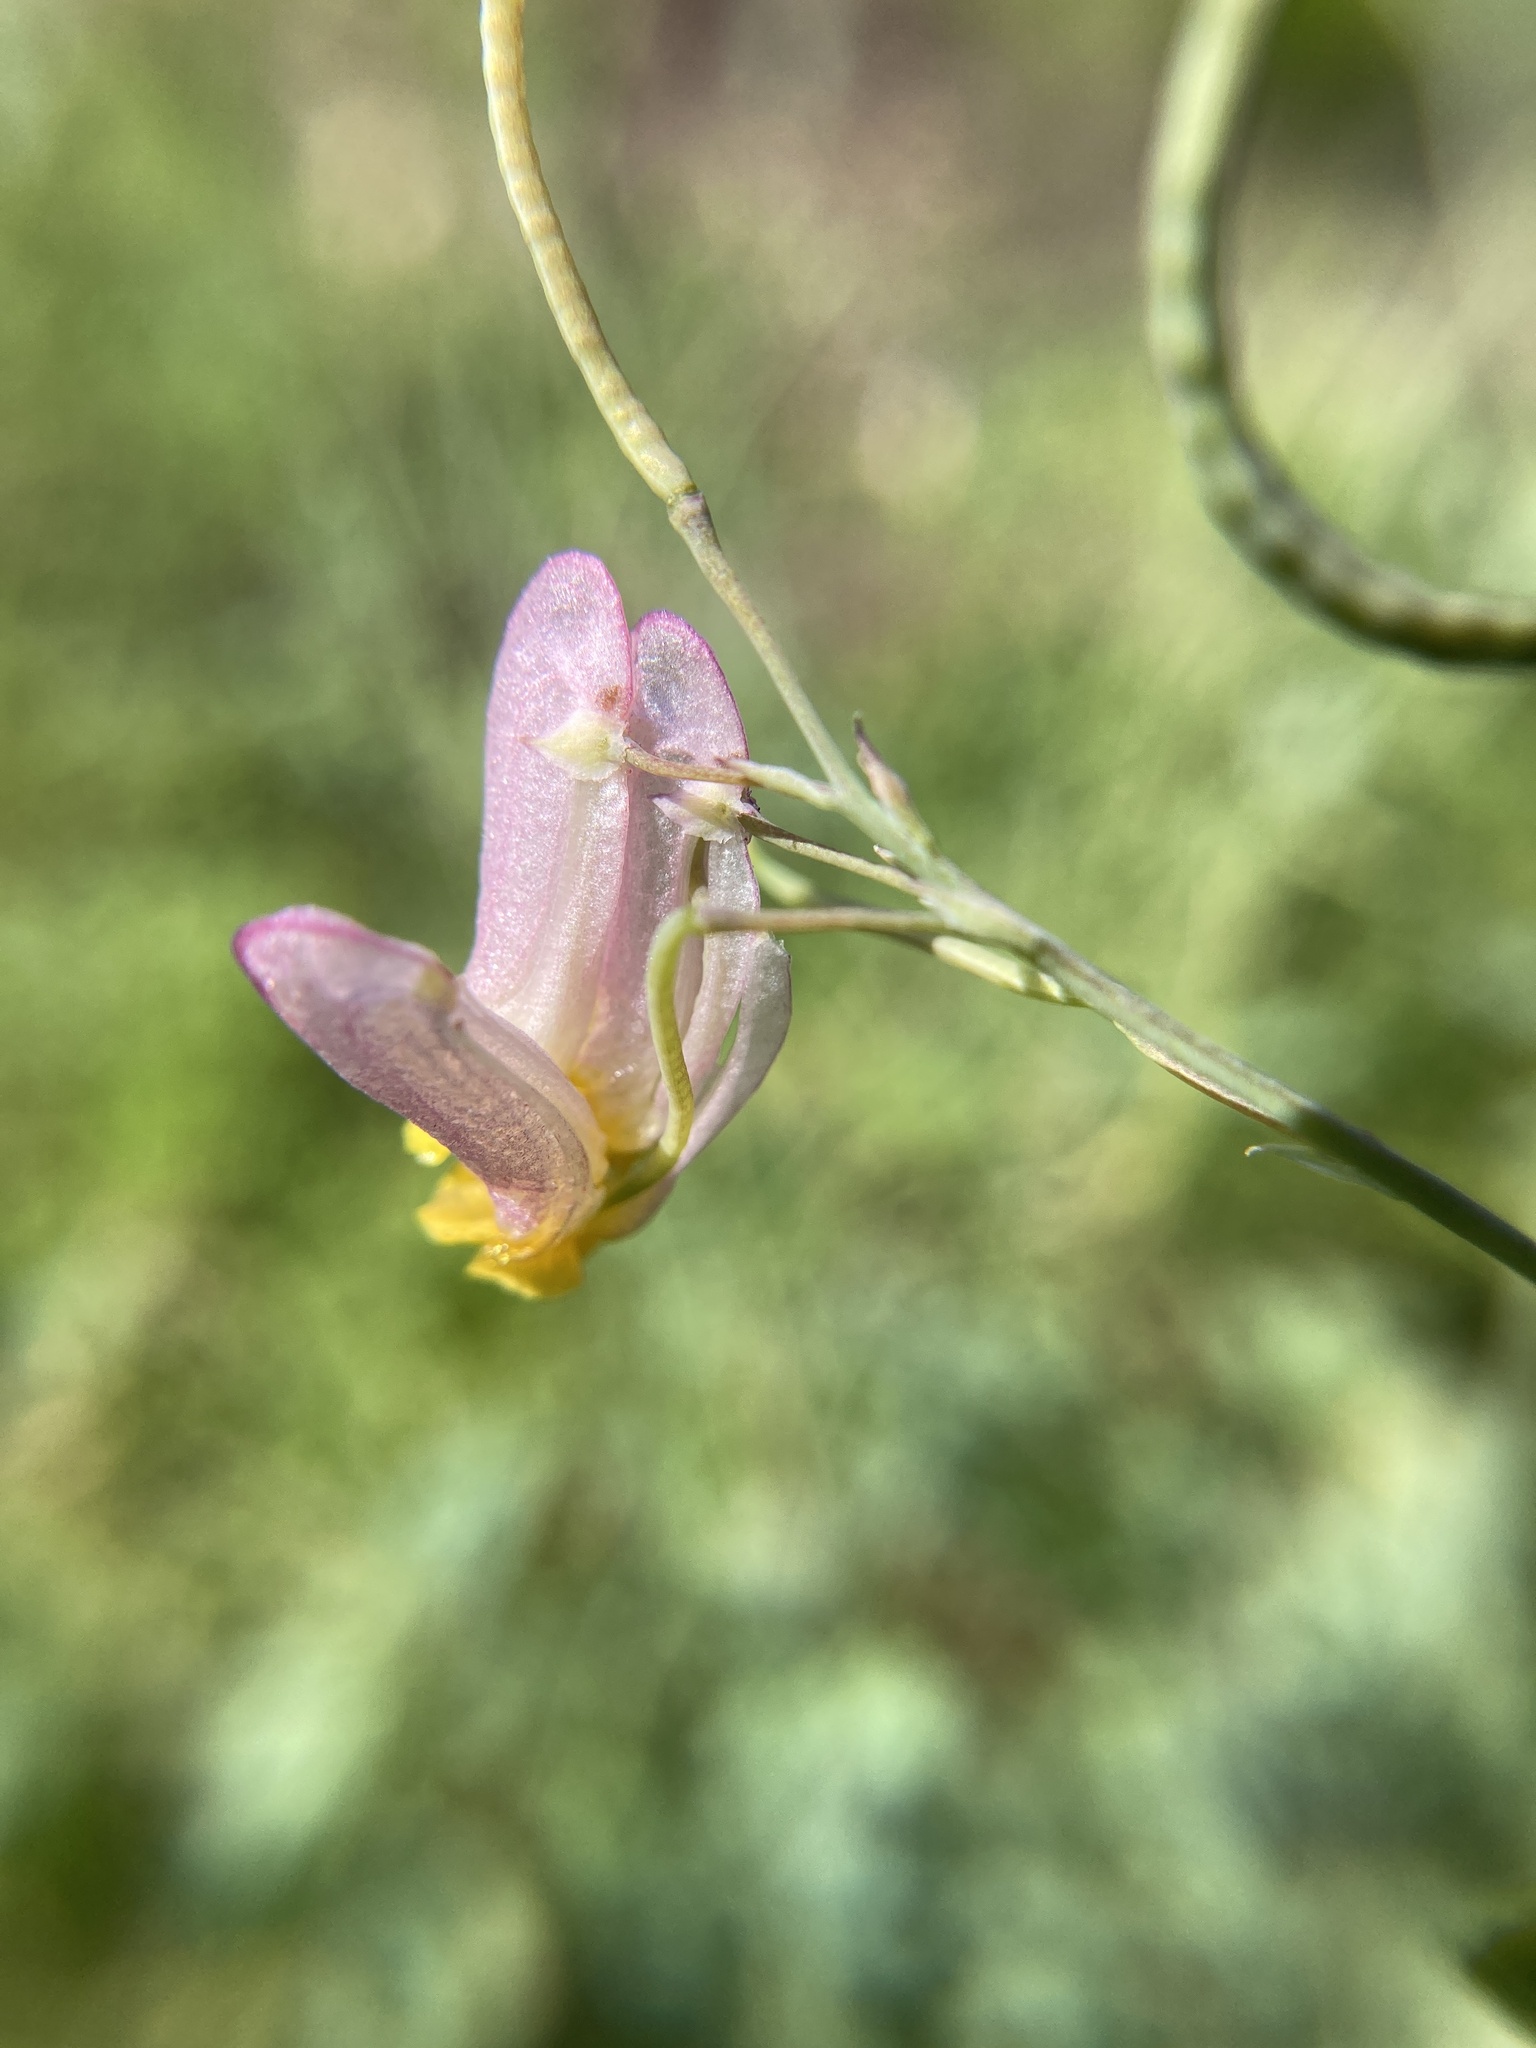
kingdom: Plantae
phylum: Tracheophyta
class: Magnoliopsida
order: Ranunculales
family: Papaveraceae
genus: Capnoides
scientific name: Capnoides sempervirens
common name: Rock harlequin
